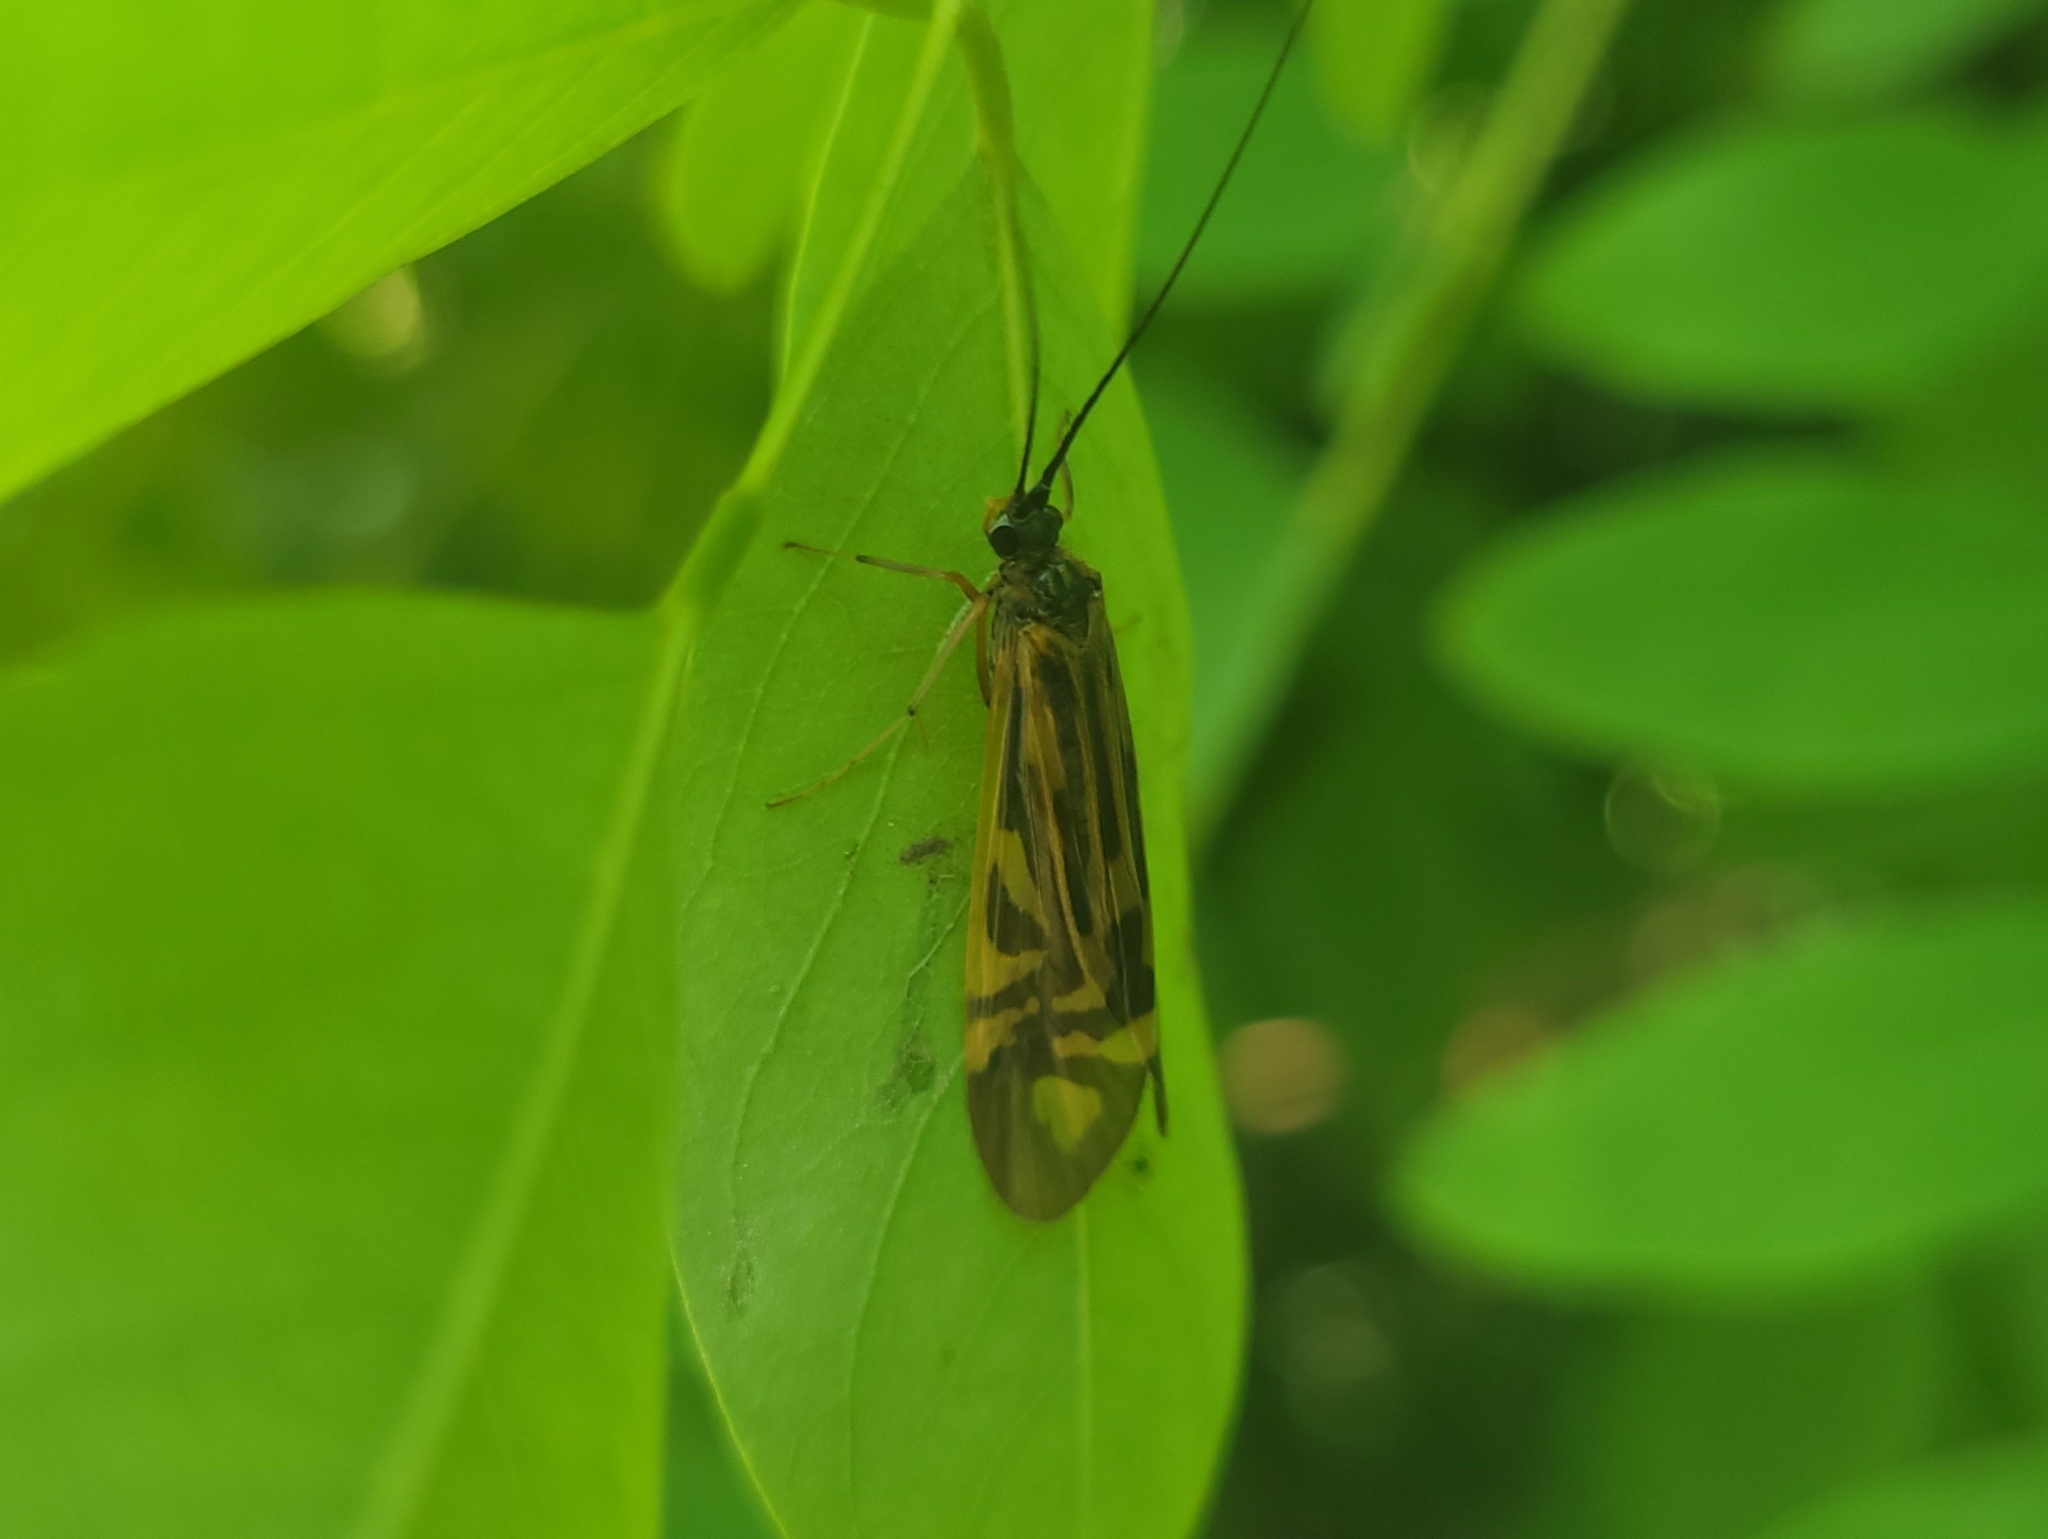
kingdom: Animalia
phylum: Arthropoda
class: Insecta
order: Trichoptera
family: Hydropsychidae
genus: Macrostemum
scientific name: Macrostemum zebratum
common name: Zebra caddisfly
